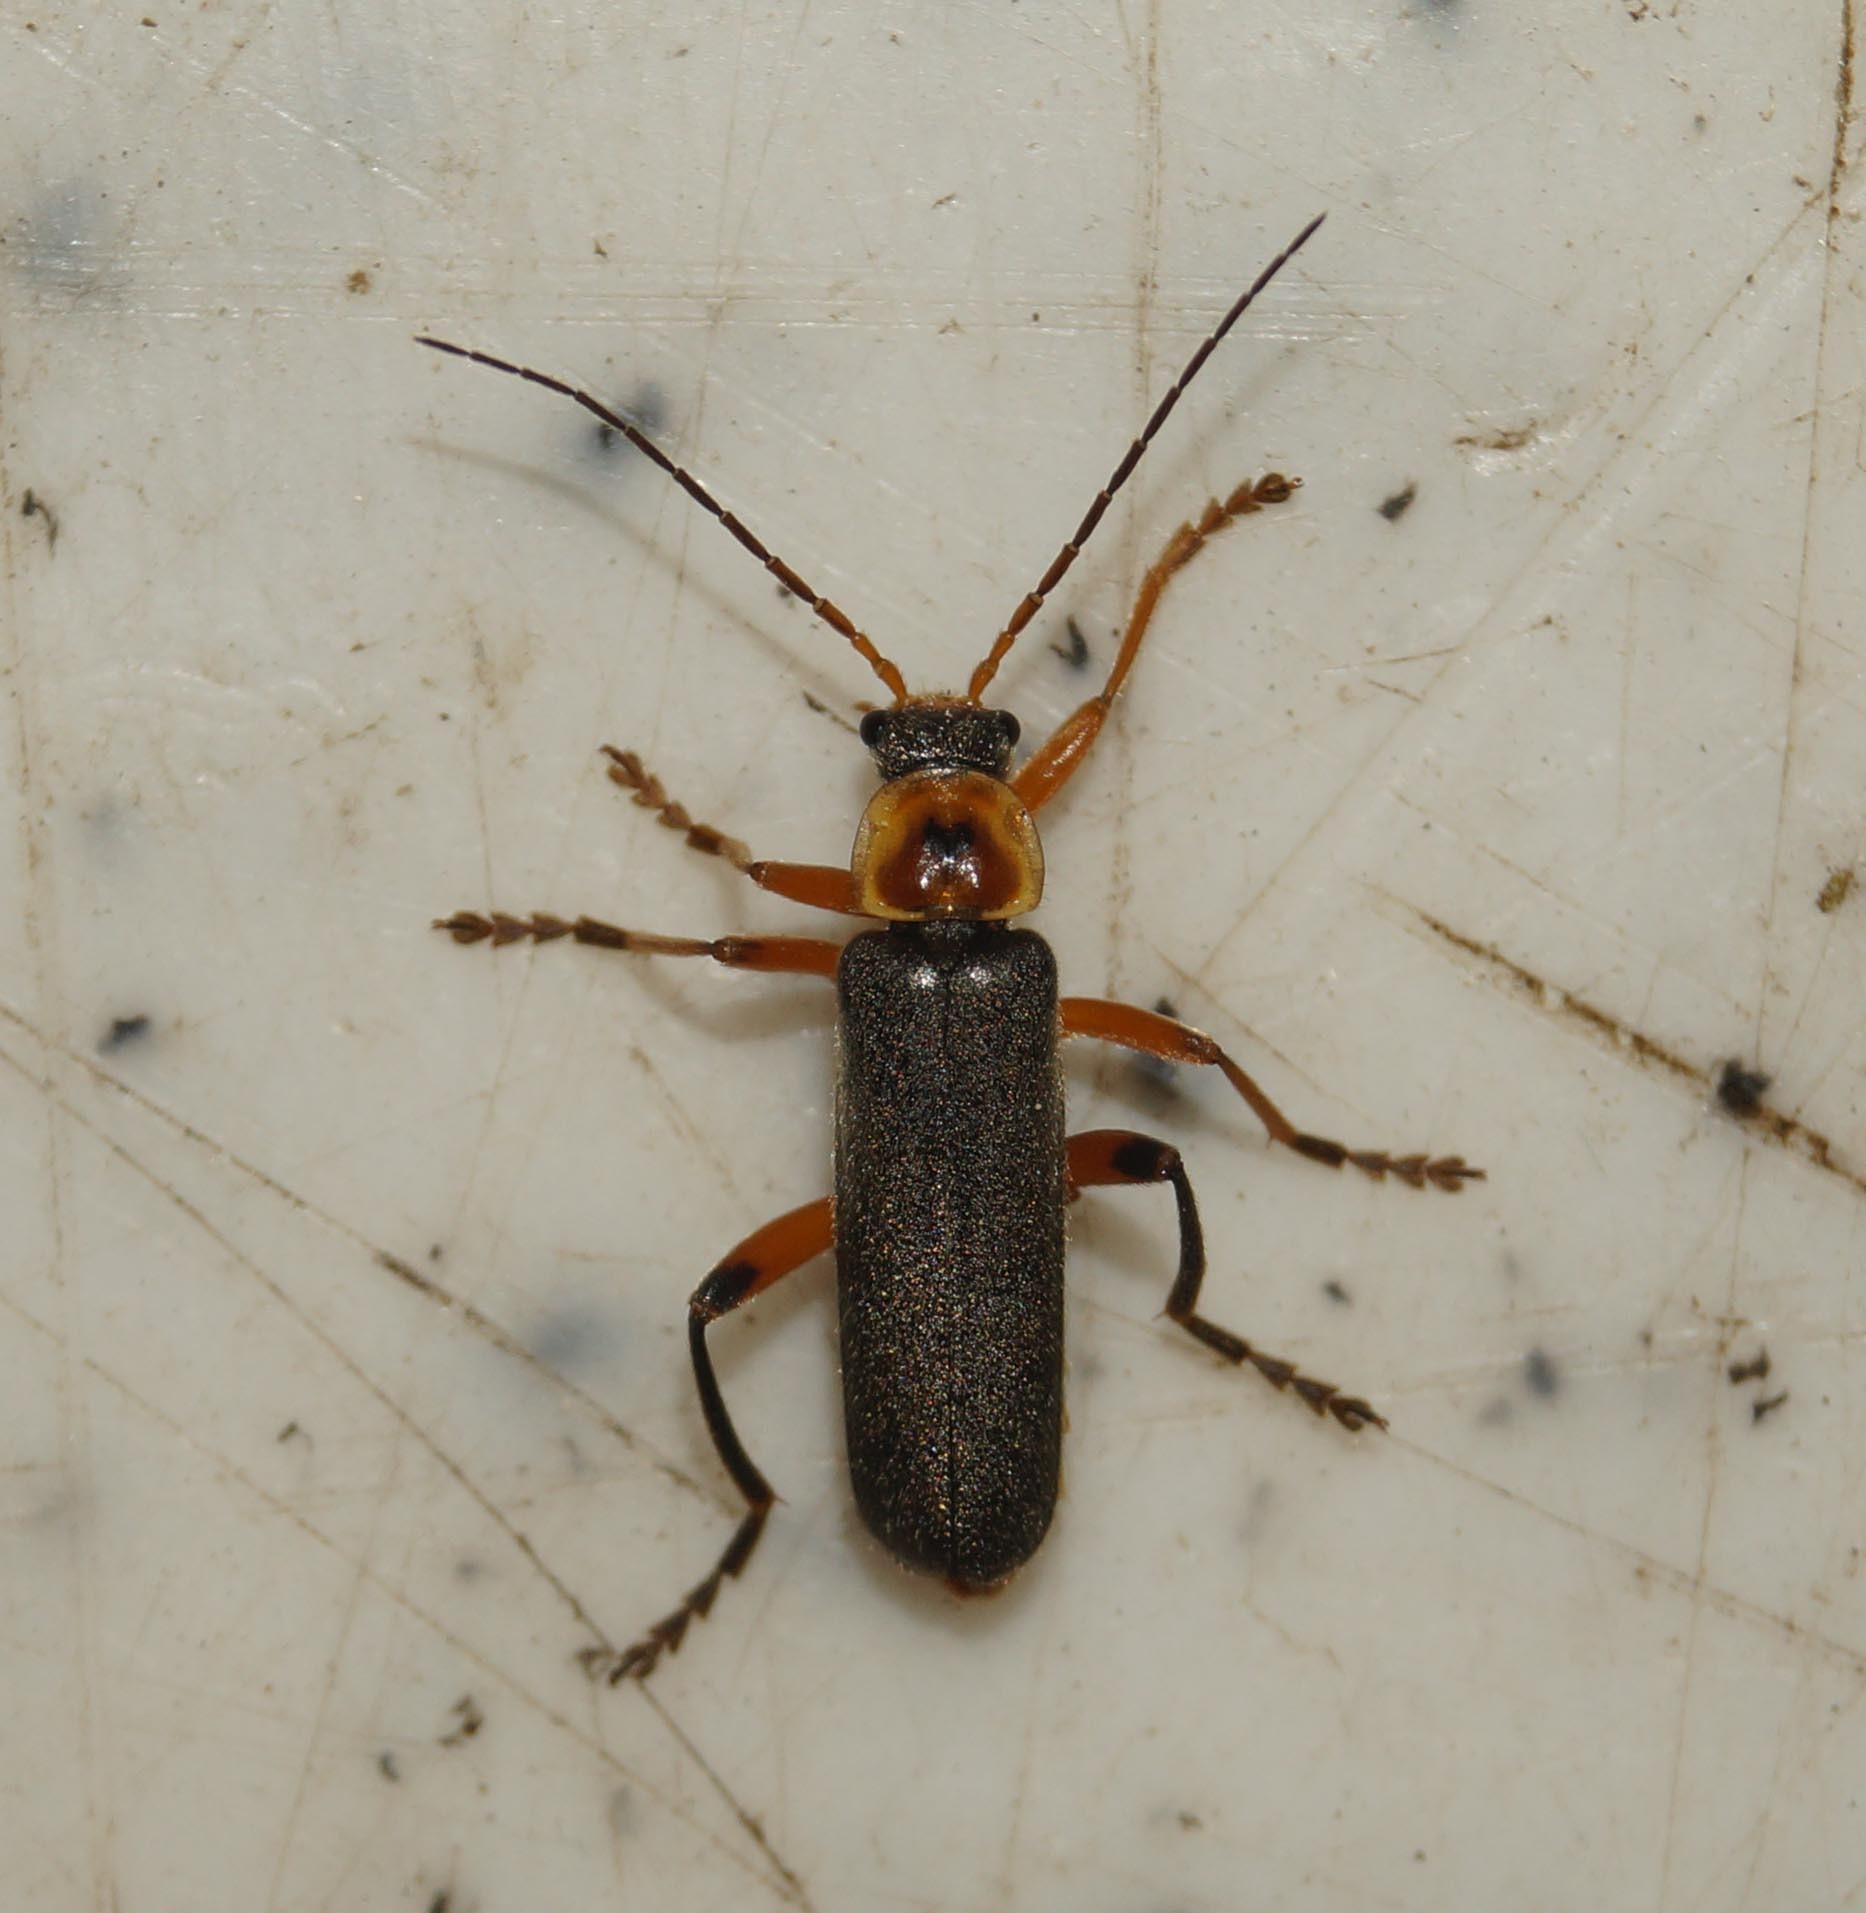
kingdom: Animalia
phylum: Arthropoda
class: Insecta
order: Coleoptera
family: Cantharidae
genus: Cantharis
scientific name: Cantharis nigricans
